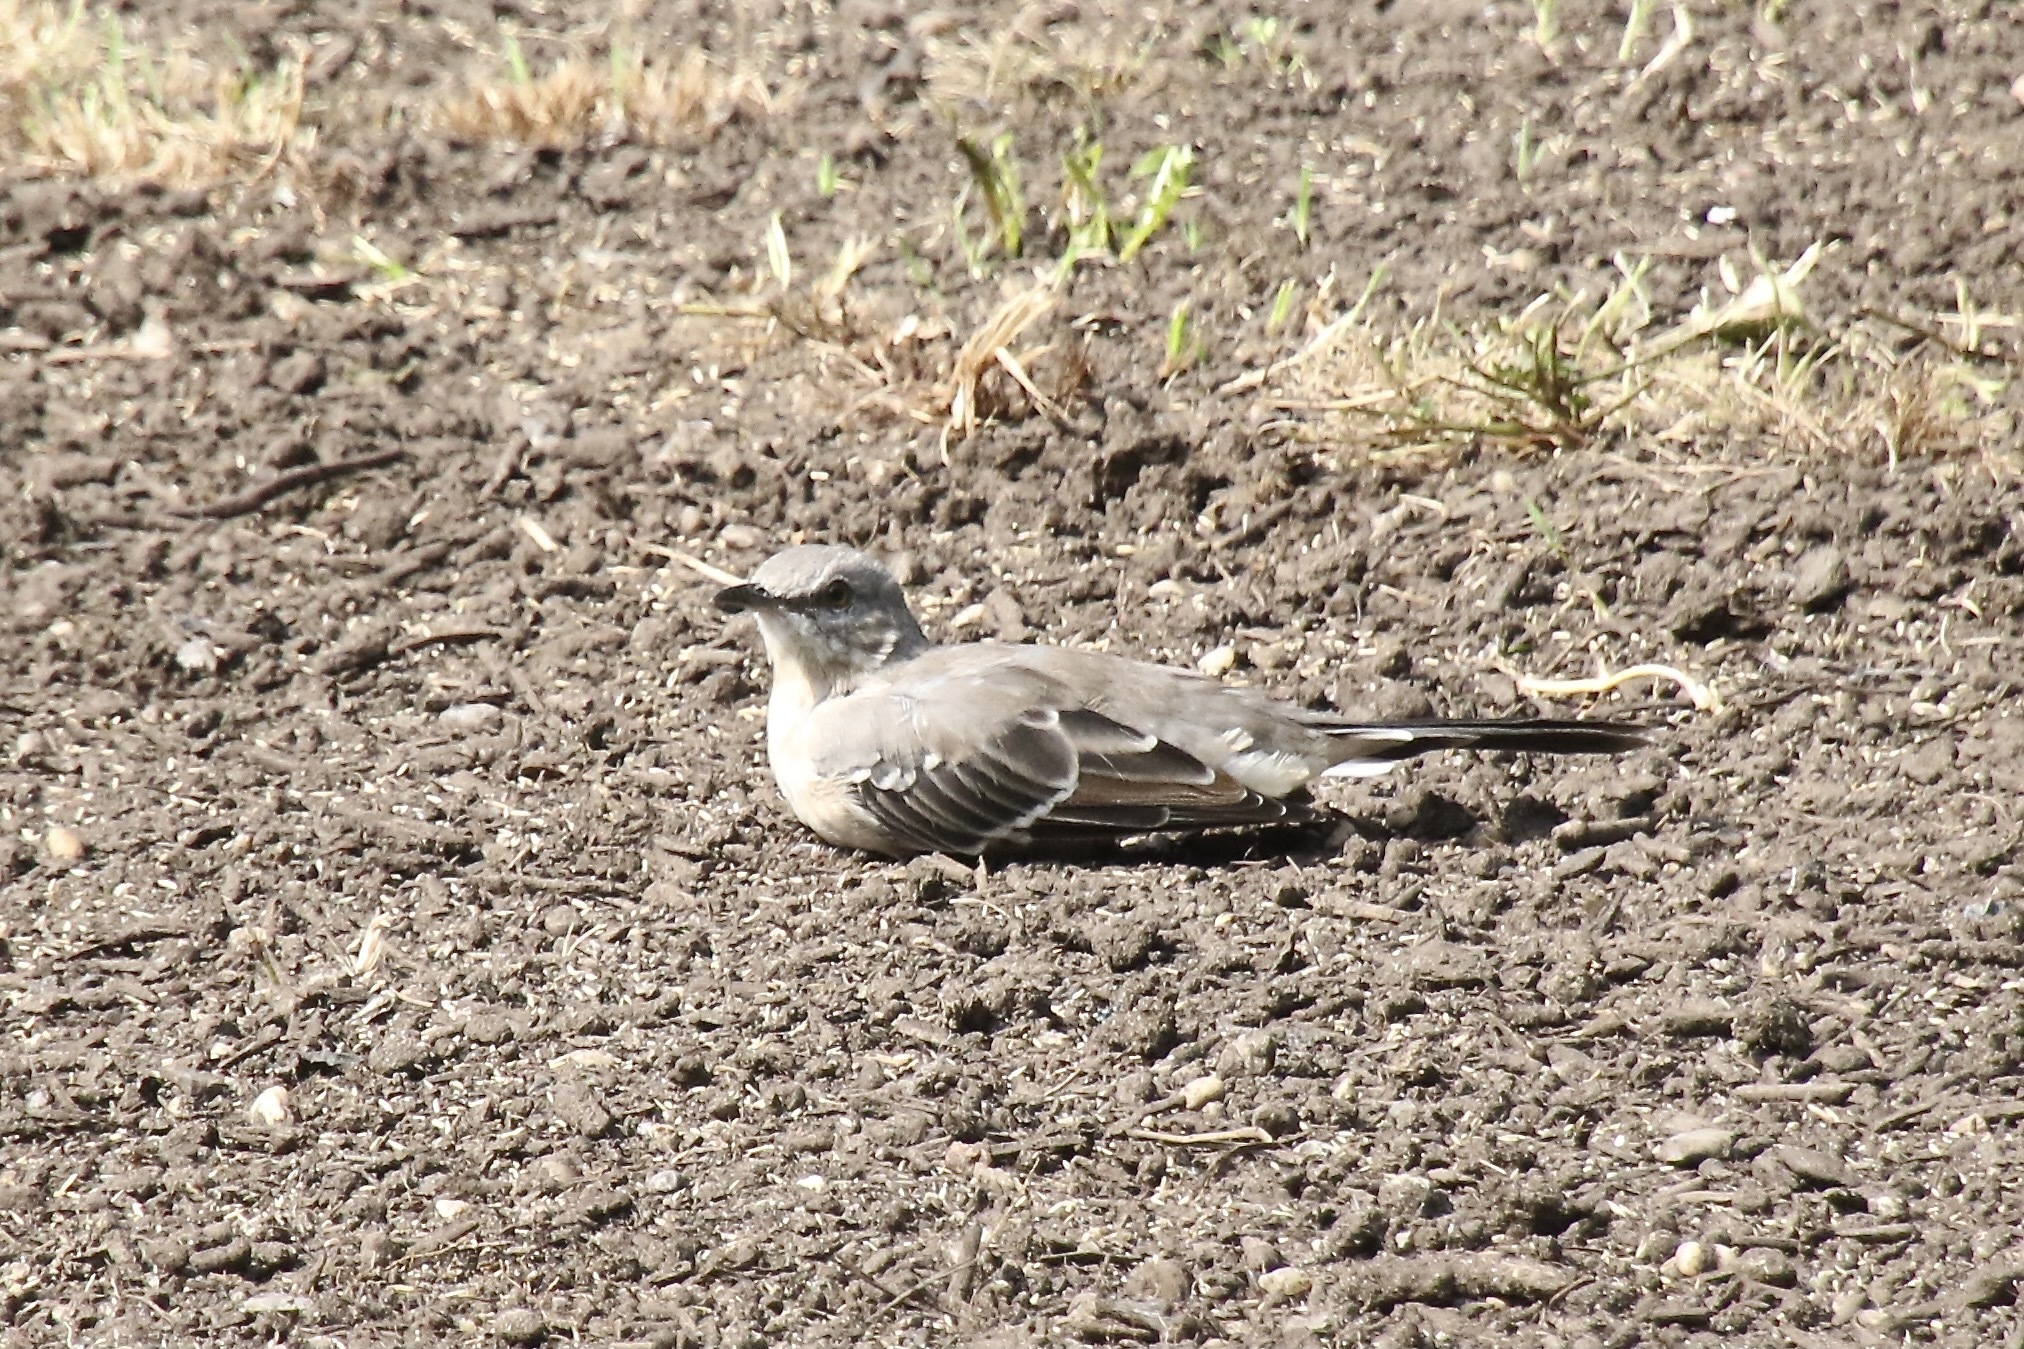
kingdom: Animalia
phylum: Chordata
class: Aves
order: Passeriformes
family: Mimidae
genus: Mimus
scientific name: Mimus polyglottos
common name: Northern mockingbird
